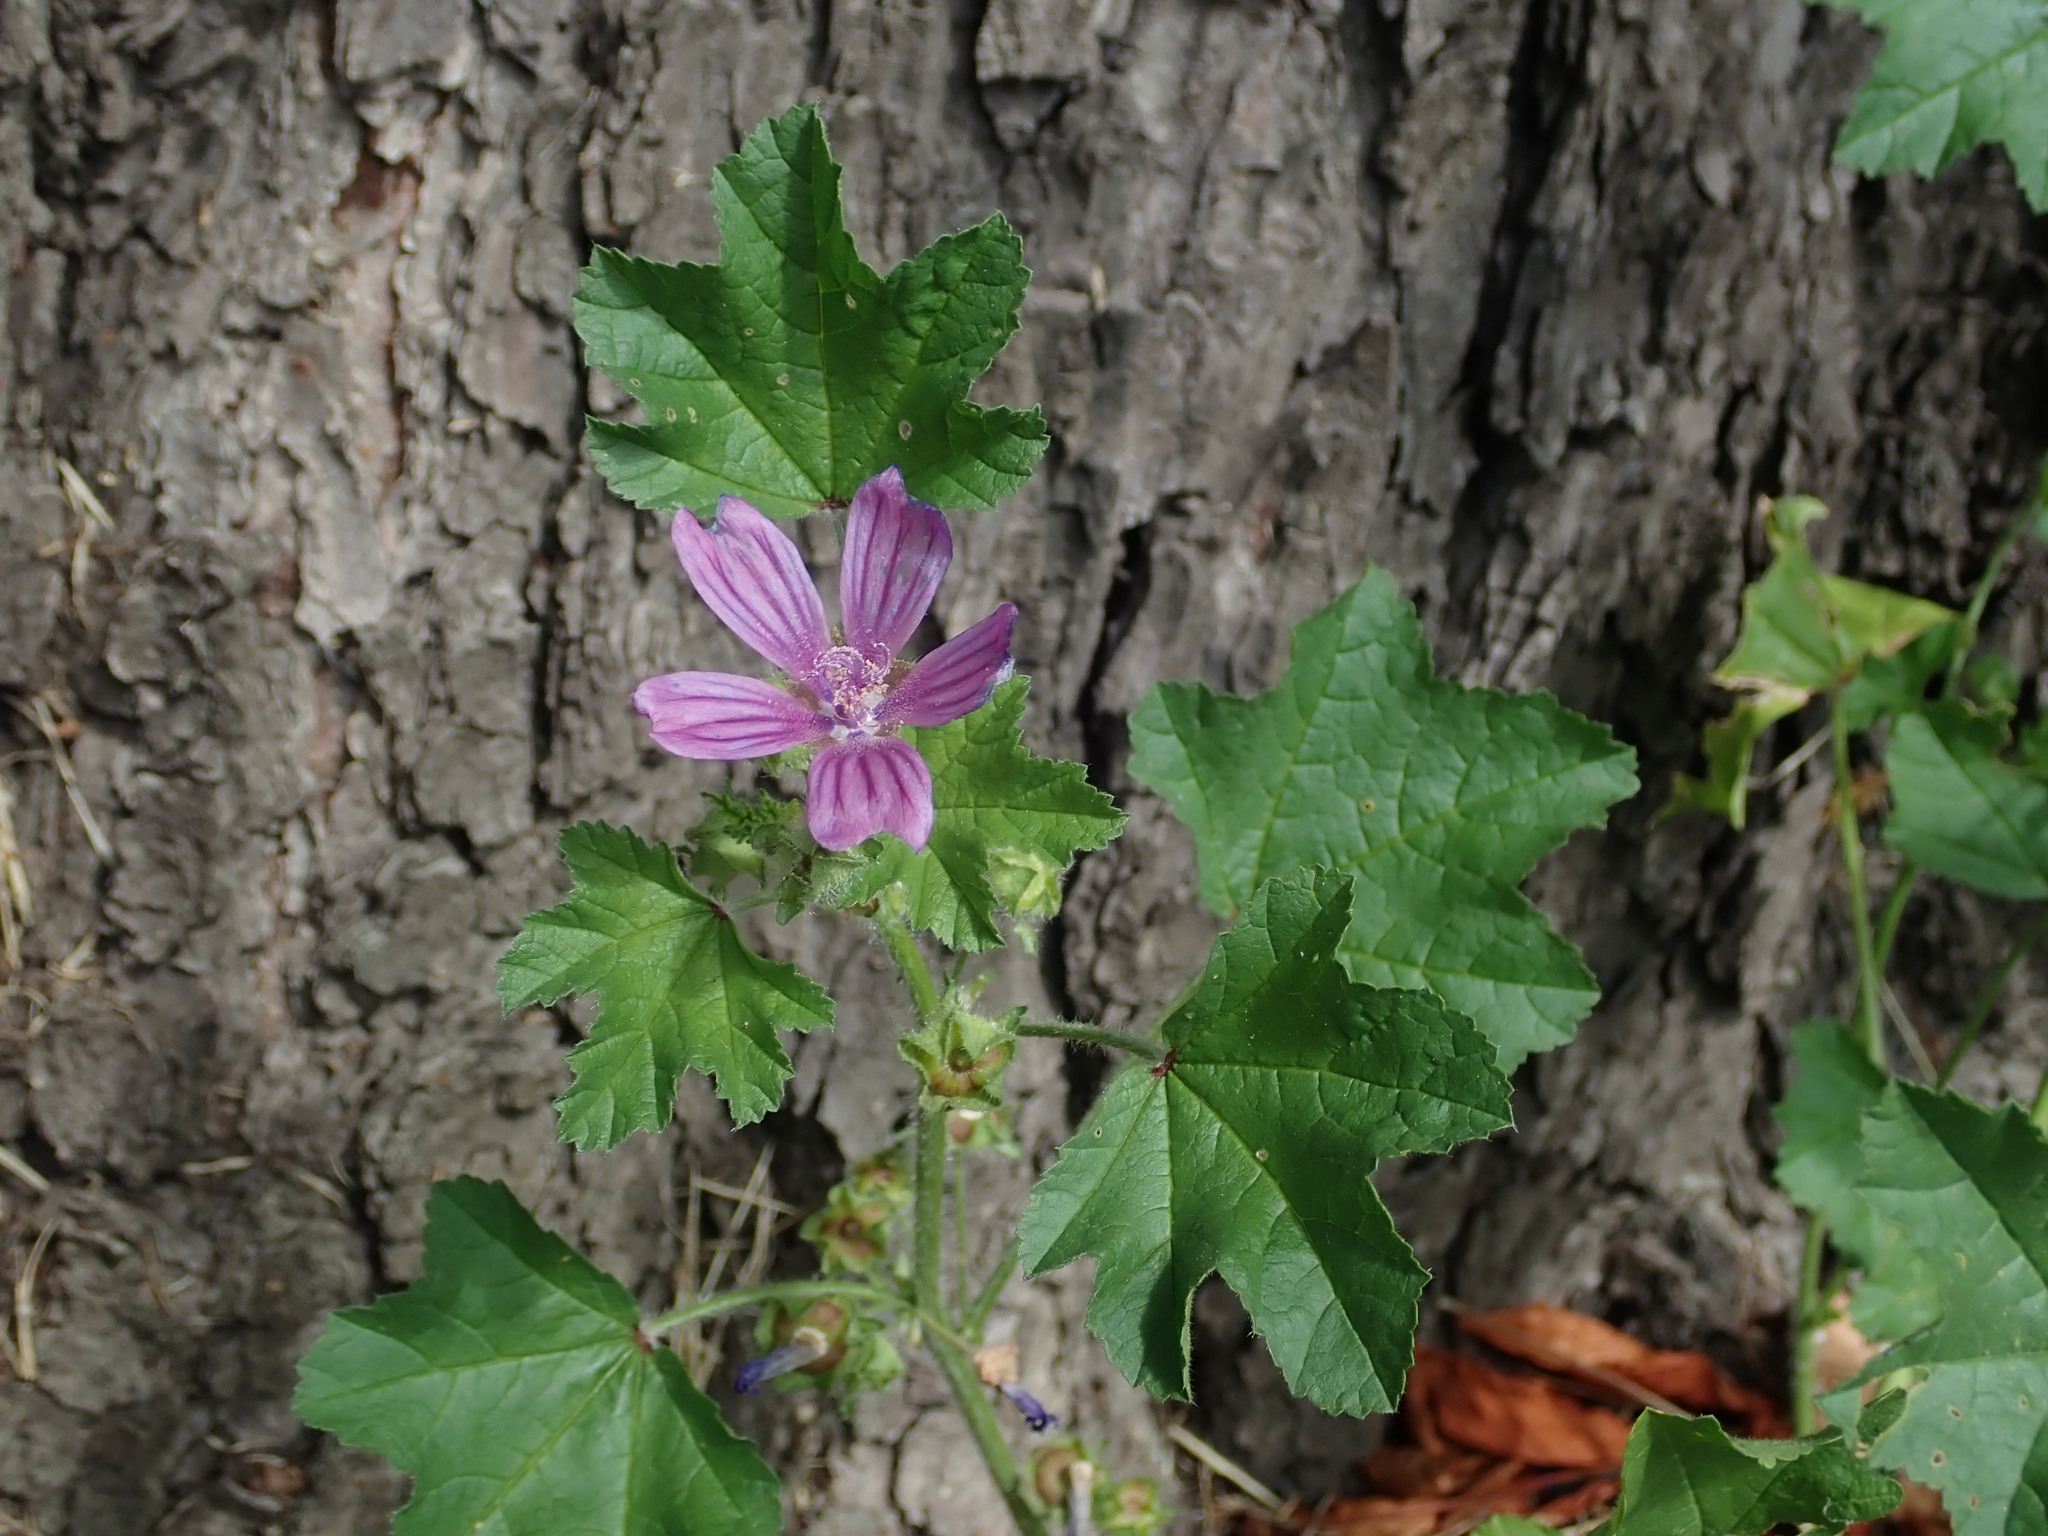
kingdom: Plantae
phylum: Tracheophyta
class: Magnoliopsida
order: Malvales
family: Malvaceae
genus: Malva
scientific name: Malva sylvestris
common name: Common mallow
